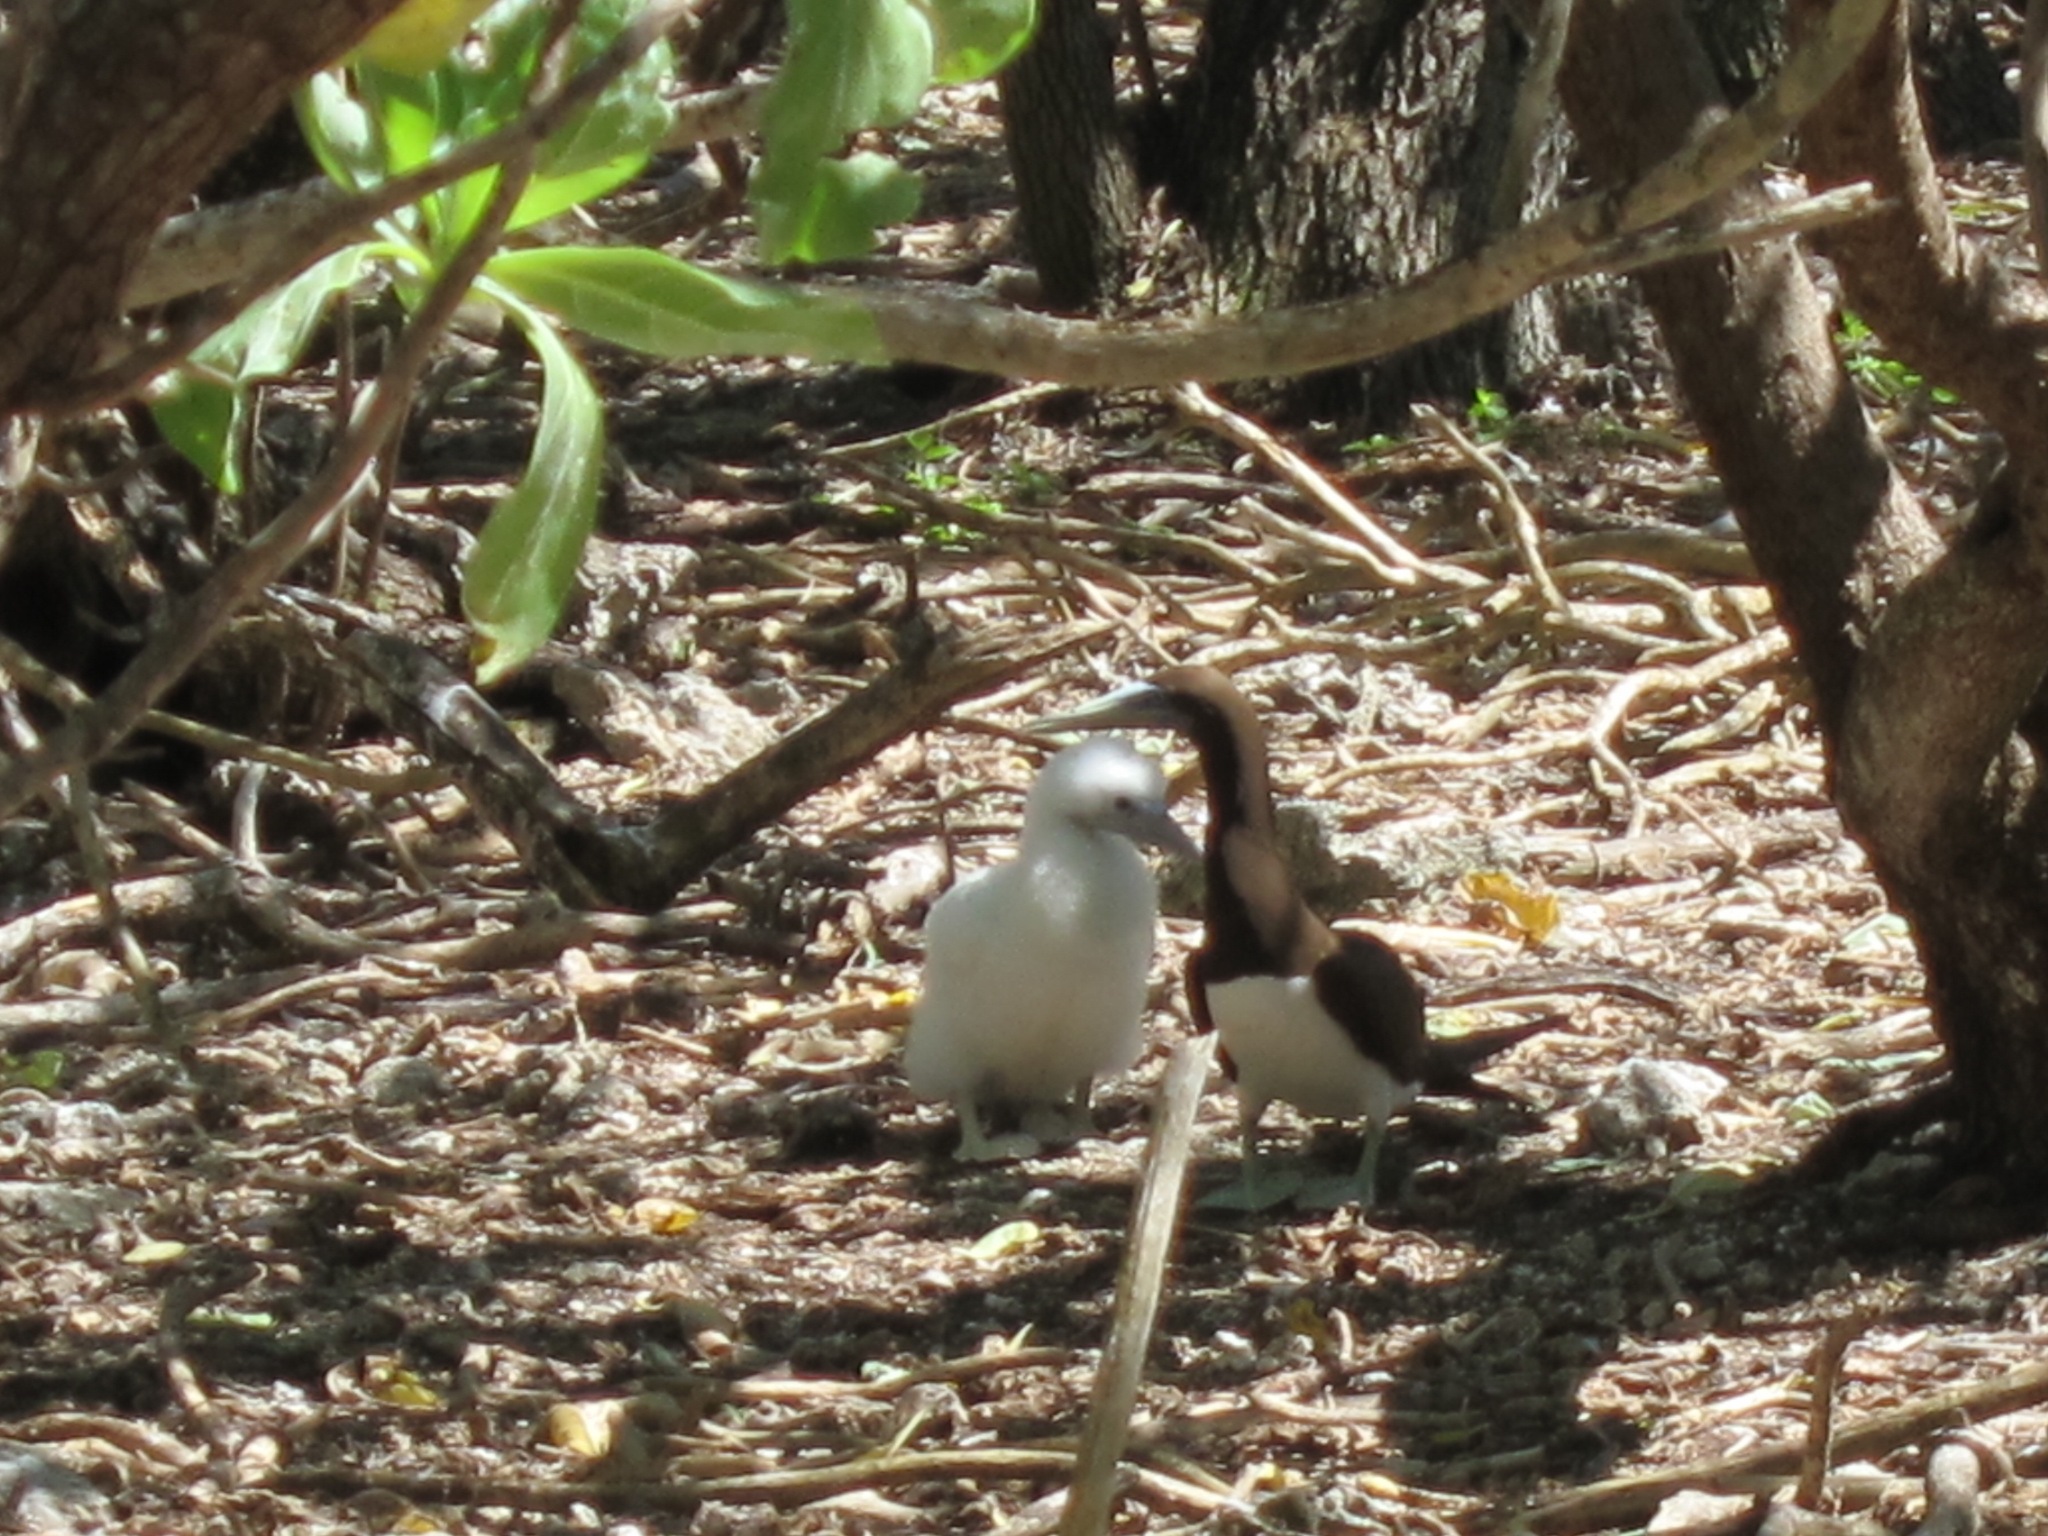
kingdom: Animalia
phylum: Chordata
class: Aves
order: Suliformes
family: Sulidae
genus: Sula
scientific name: Sula leucogaster
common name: Brown booby
